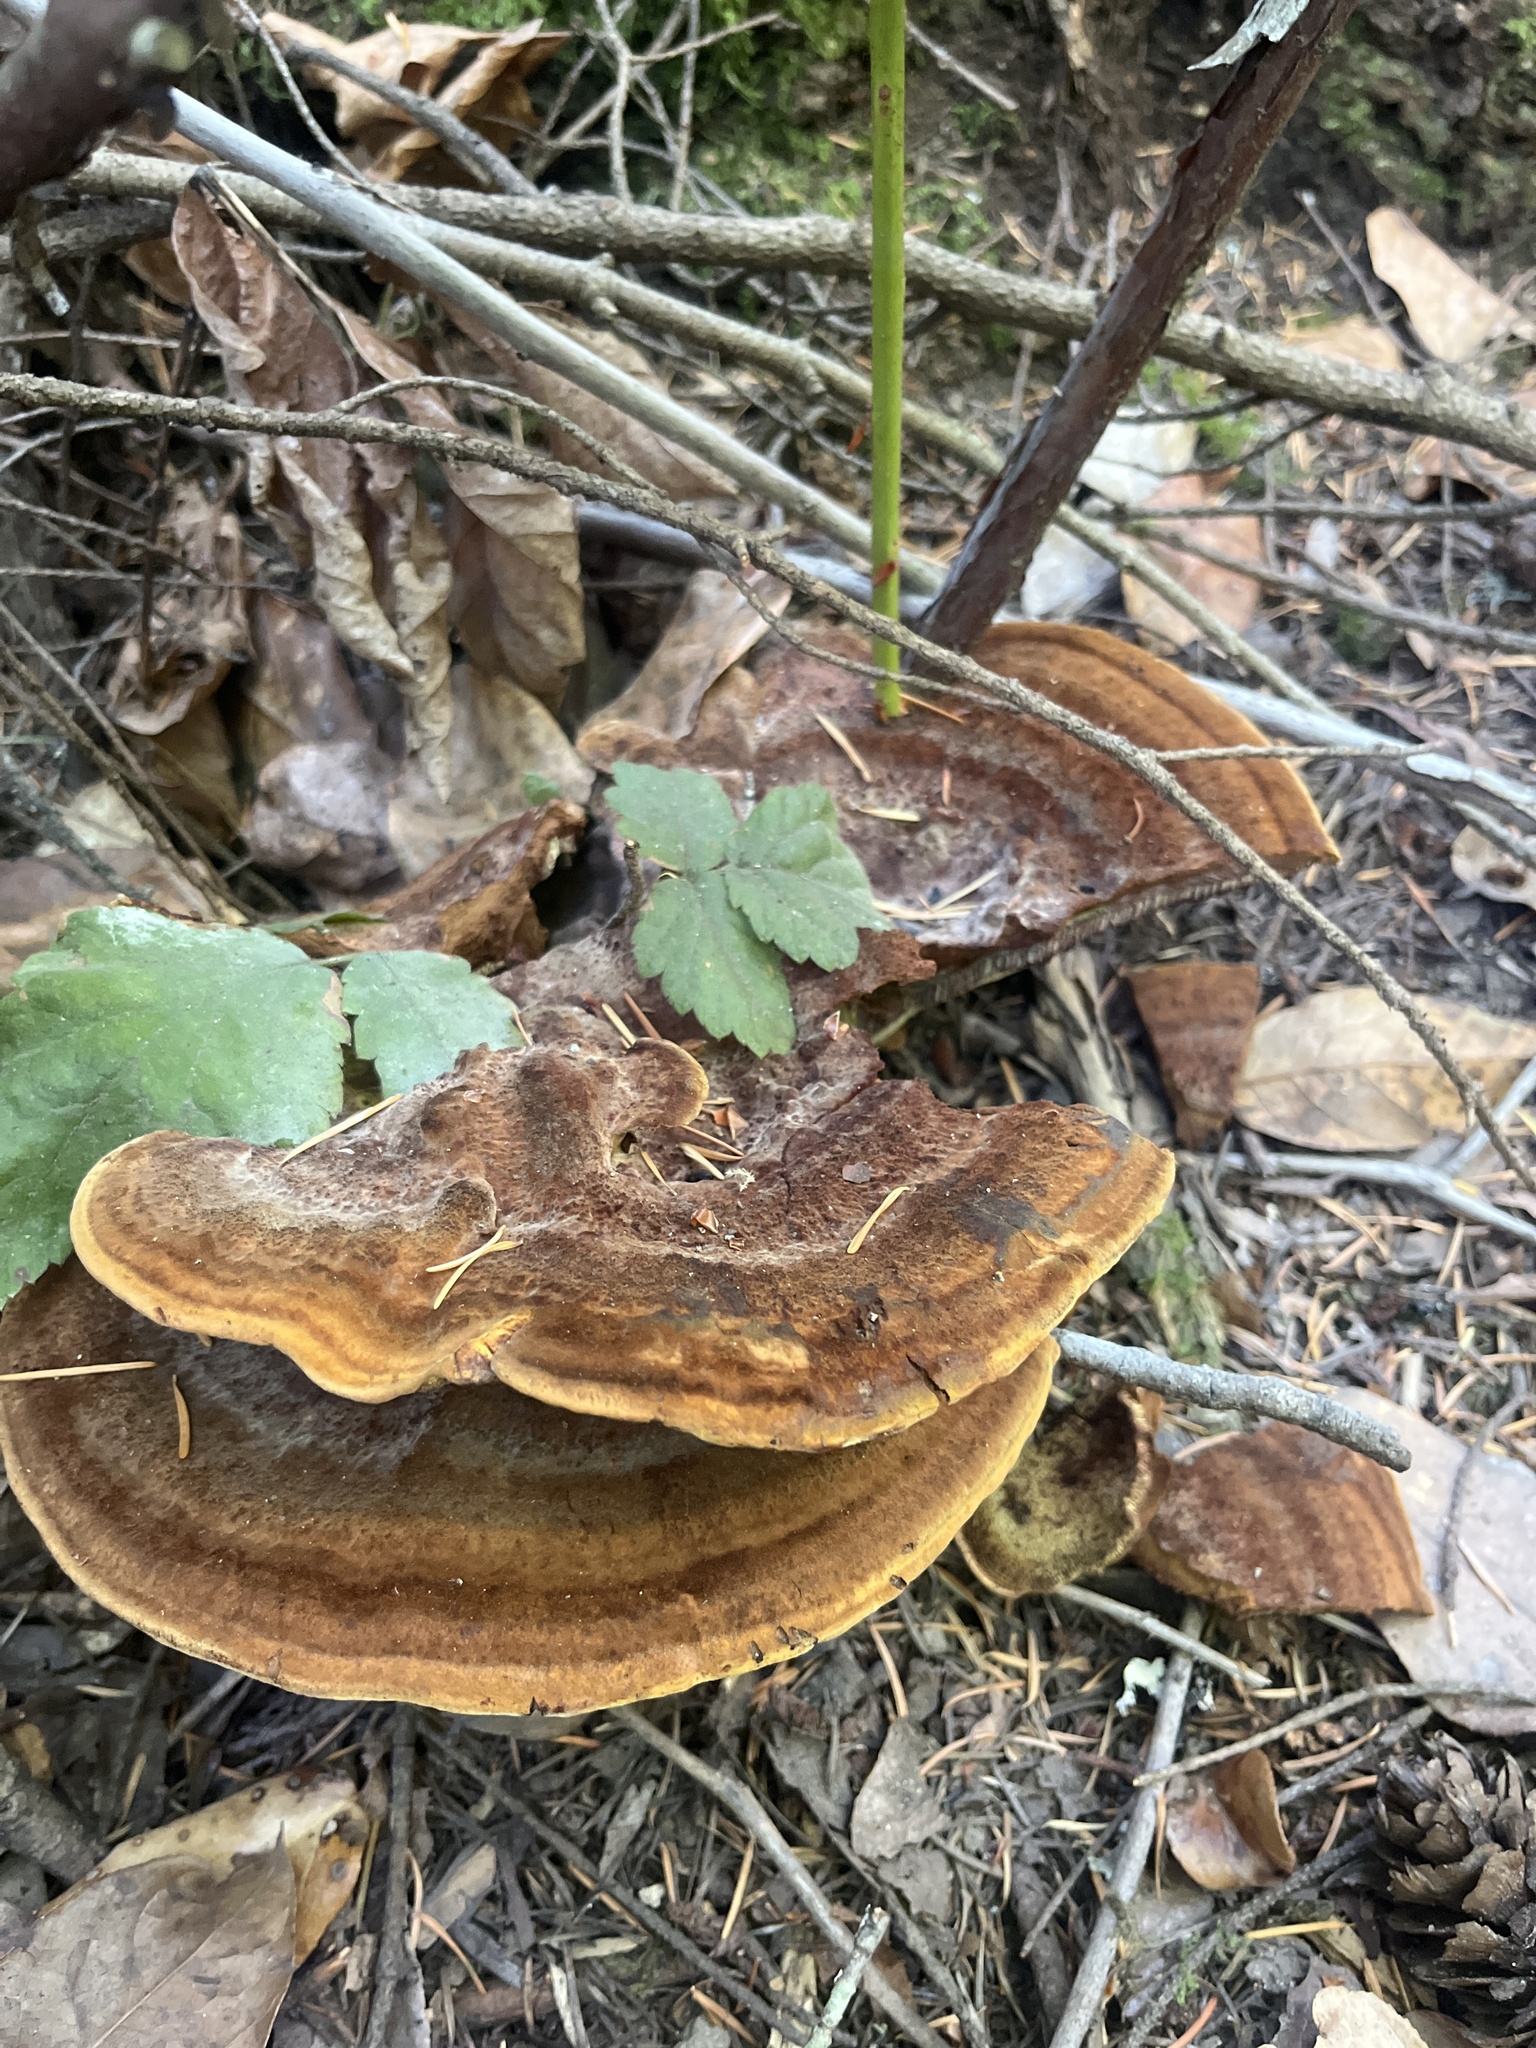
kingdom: Fungi
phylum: Basidiomycota
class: Agaricomycetes
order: Polyporales
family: Laetiporaceae
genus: Phaeolus
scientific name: Phaeolus schweinitzii
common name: Dyer's mazegill
